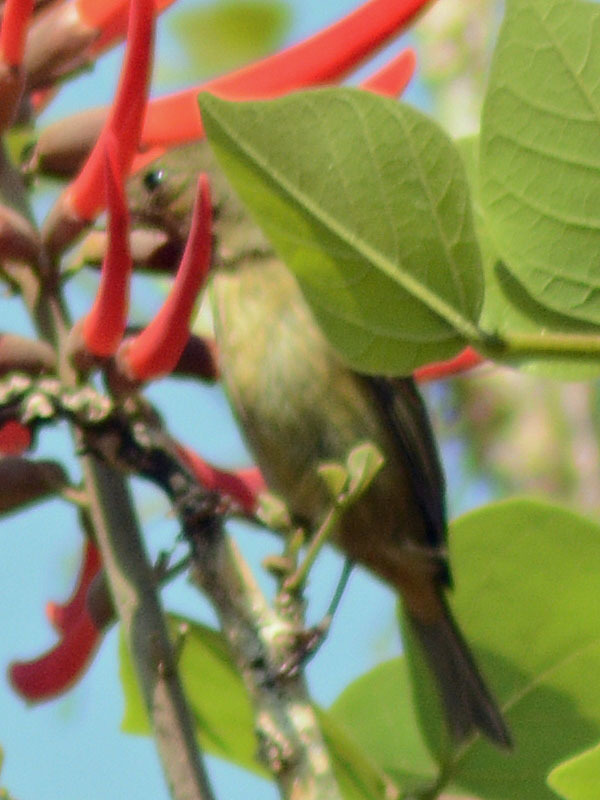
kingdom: Animalia
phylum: Chordata
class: Aves
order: Passeriformes
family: Thraupidae
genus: Diglossa
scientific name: Diglossa baritula
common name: Cinnamon-bellied flowerpiercer
